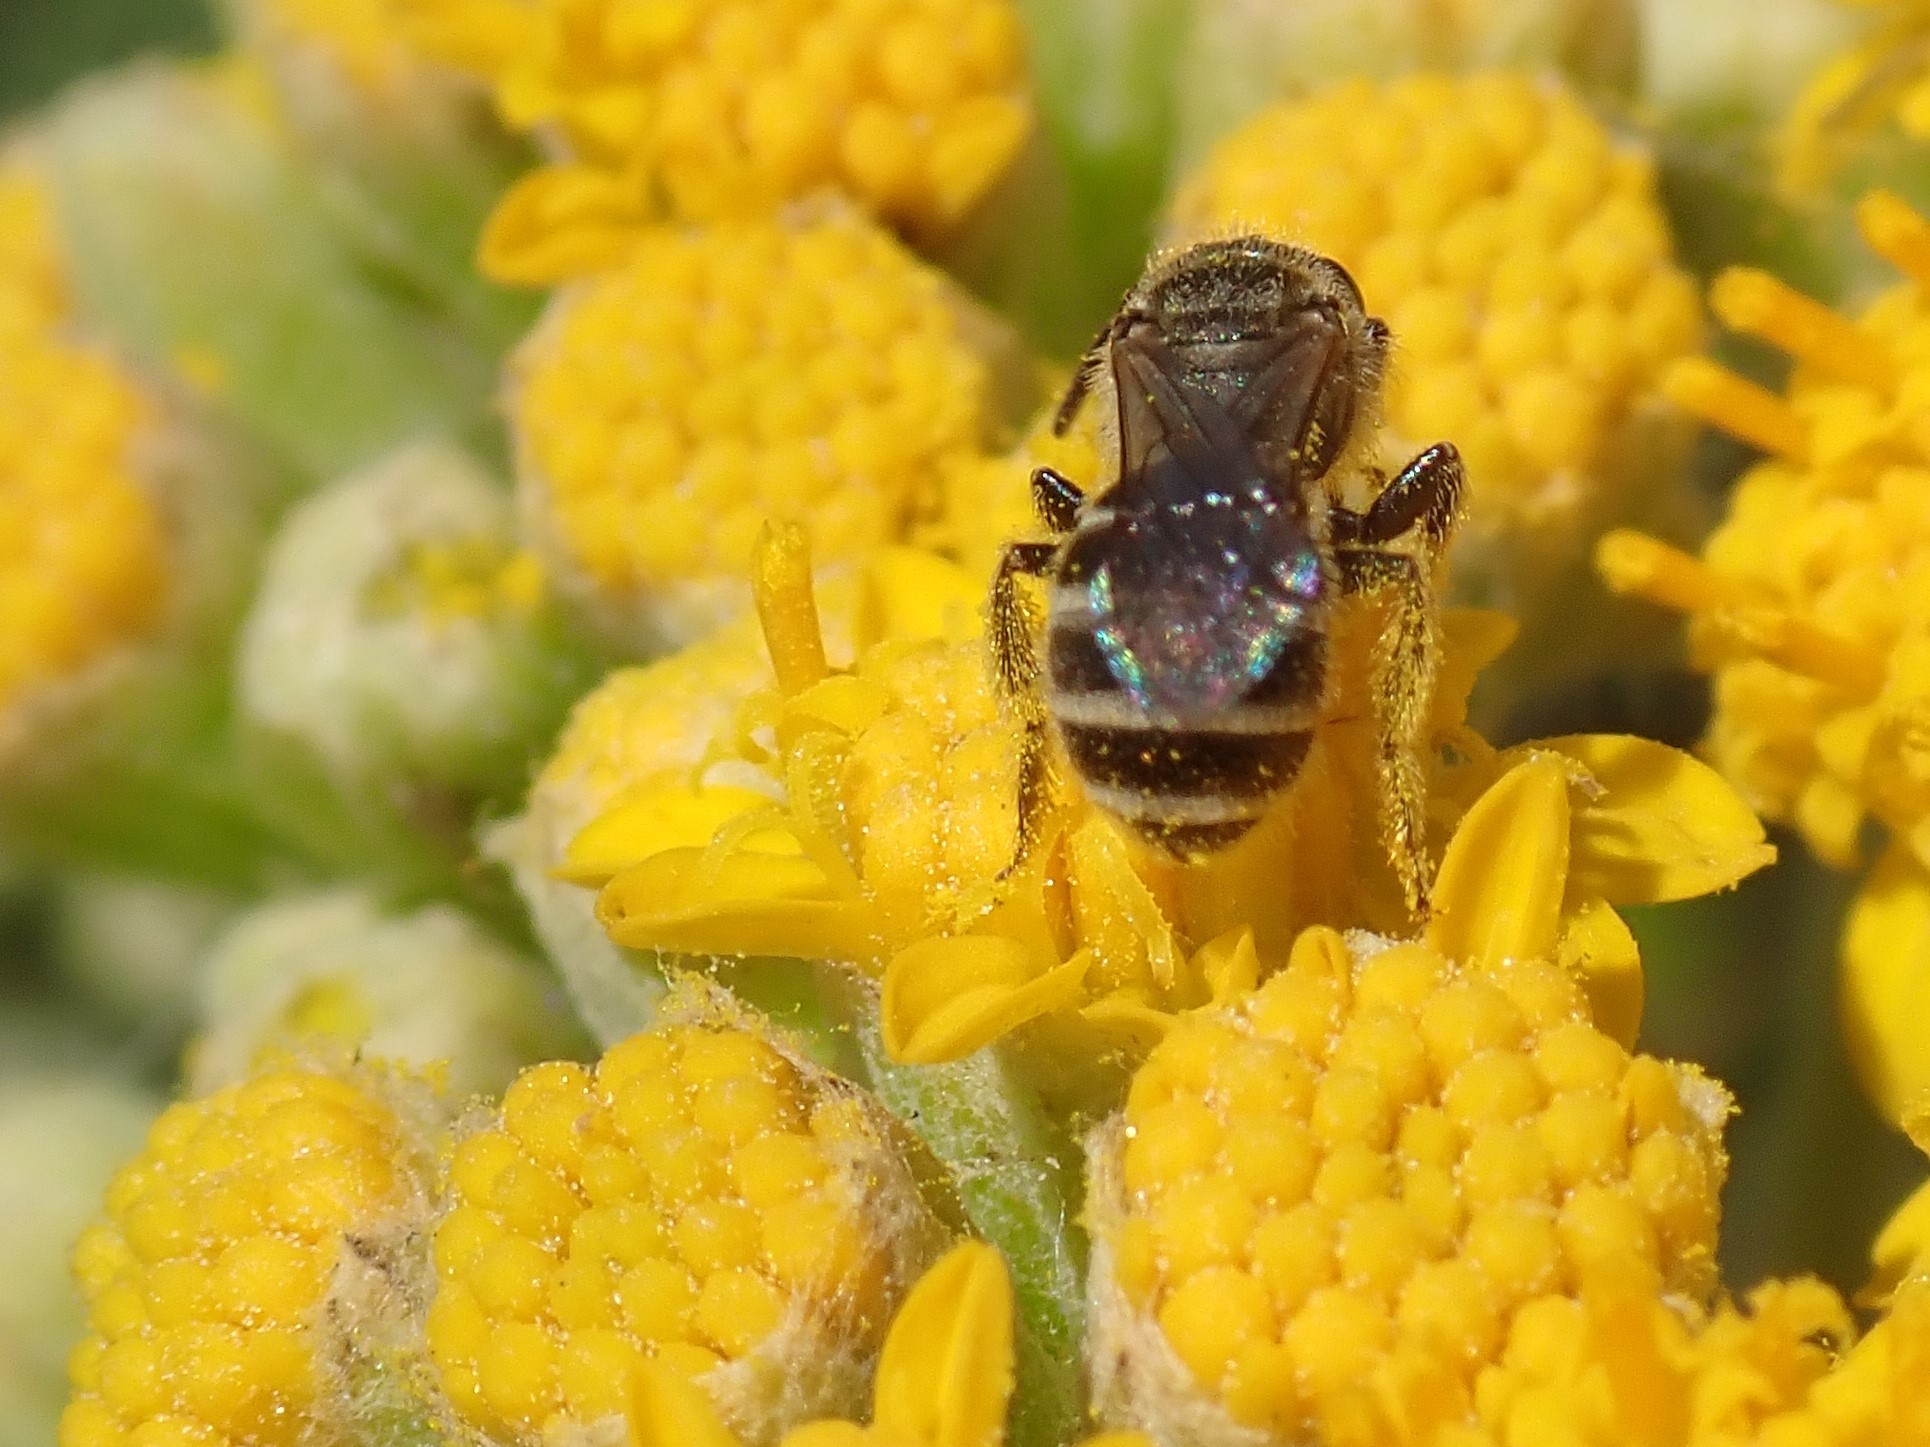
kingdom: Animalia
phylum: Arthropoda
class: Insecta
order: Hymenoptera
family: Halictidae
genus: Halictus
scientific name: Halictus tripartitus
